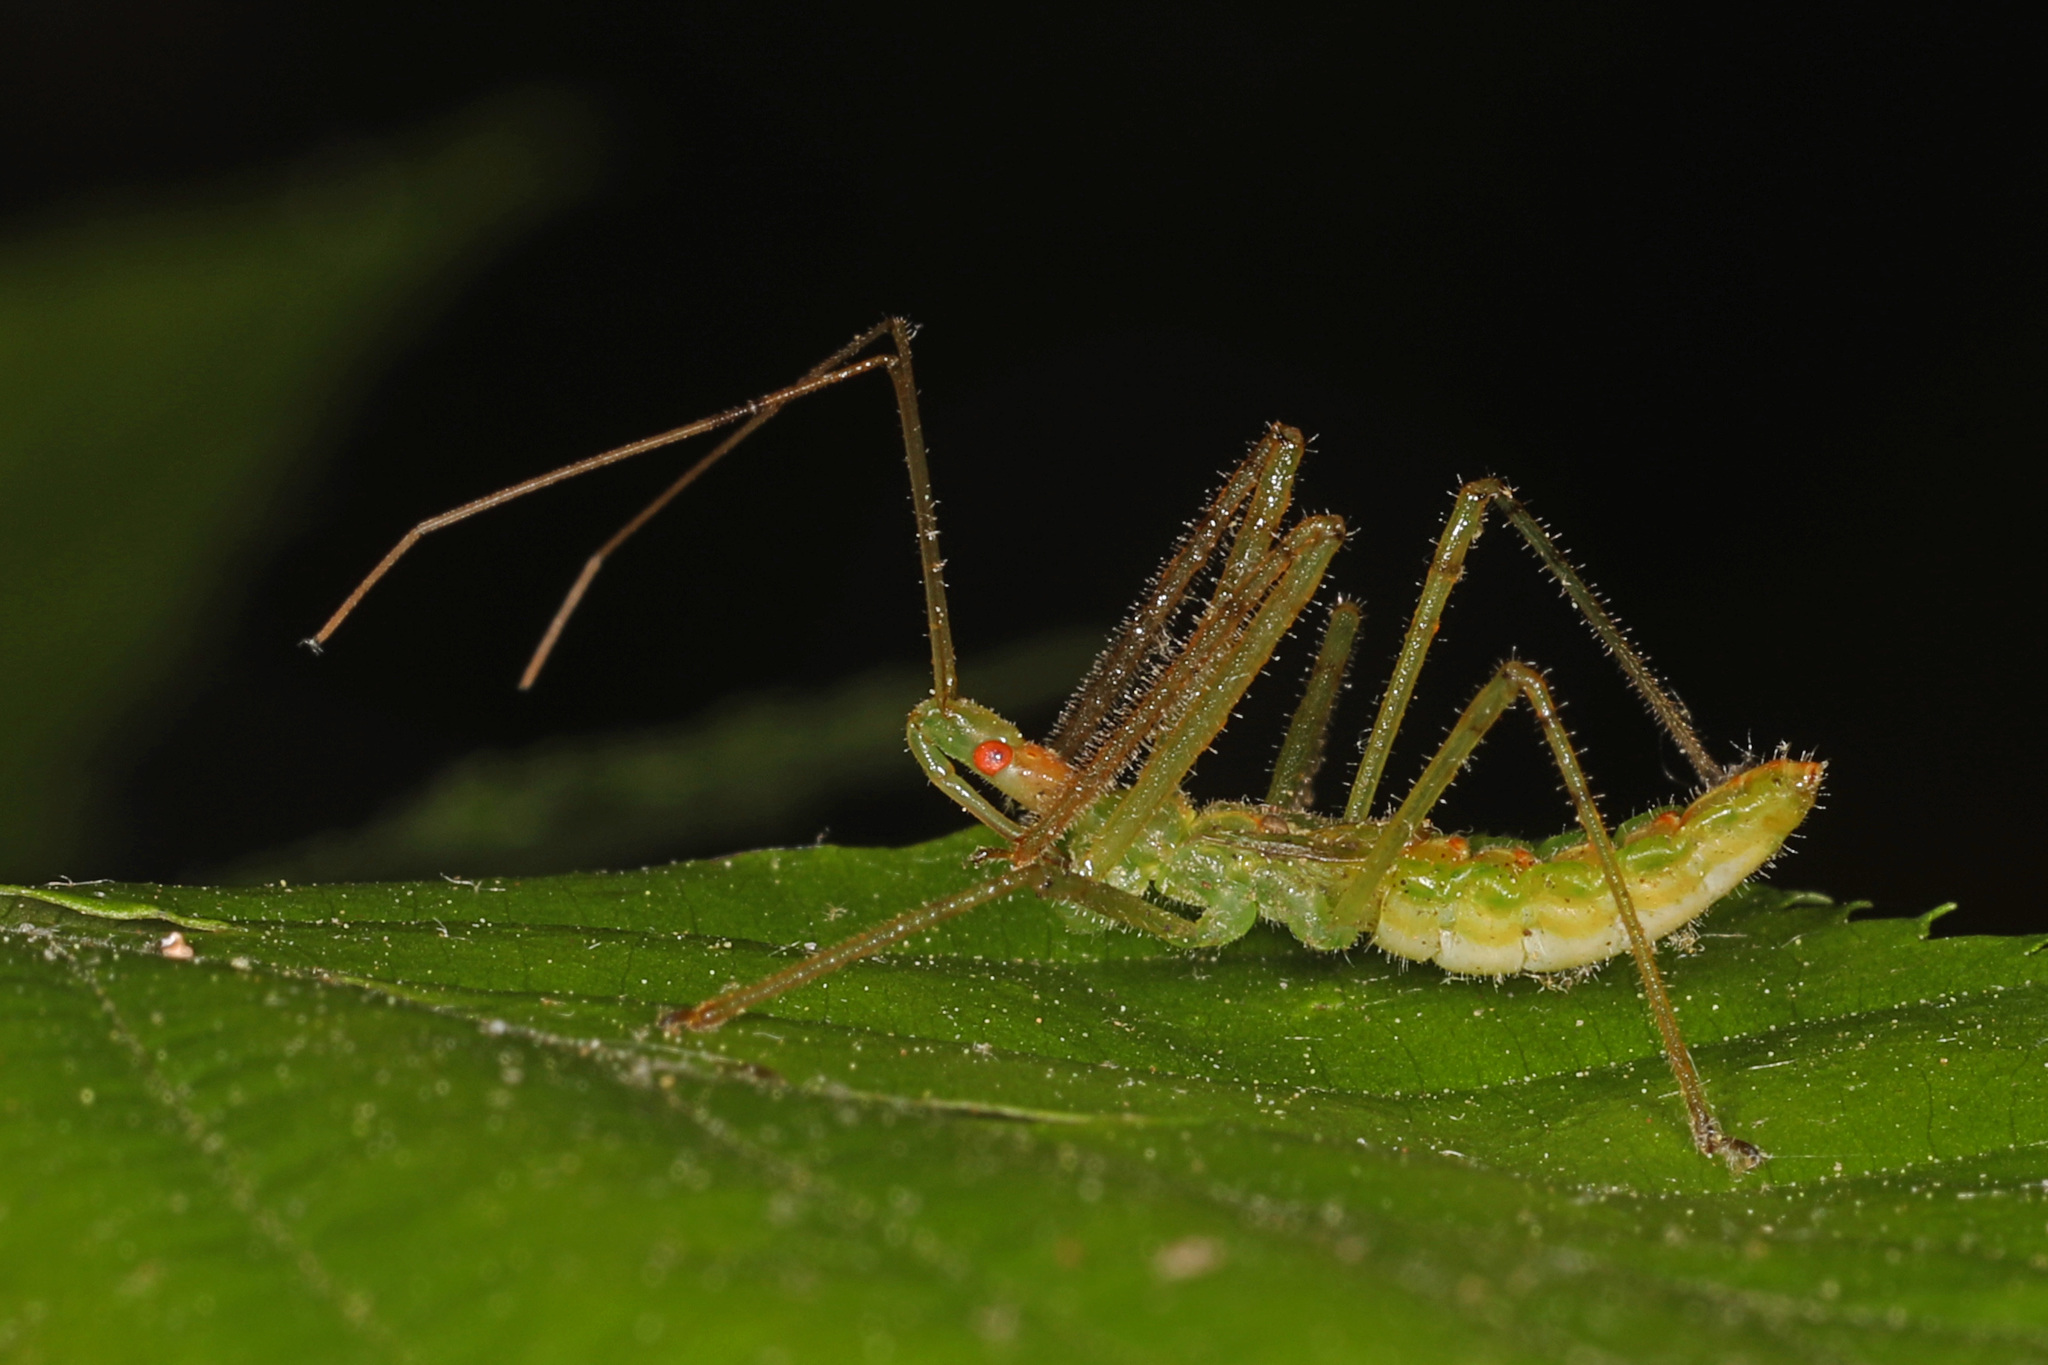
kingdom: Animalia
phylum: Arthropoda
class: Insecta
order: Hemiptera
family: Reduviidae
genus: Zelus
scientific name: Zelus luridus
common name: Pale green assassin bug
